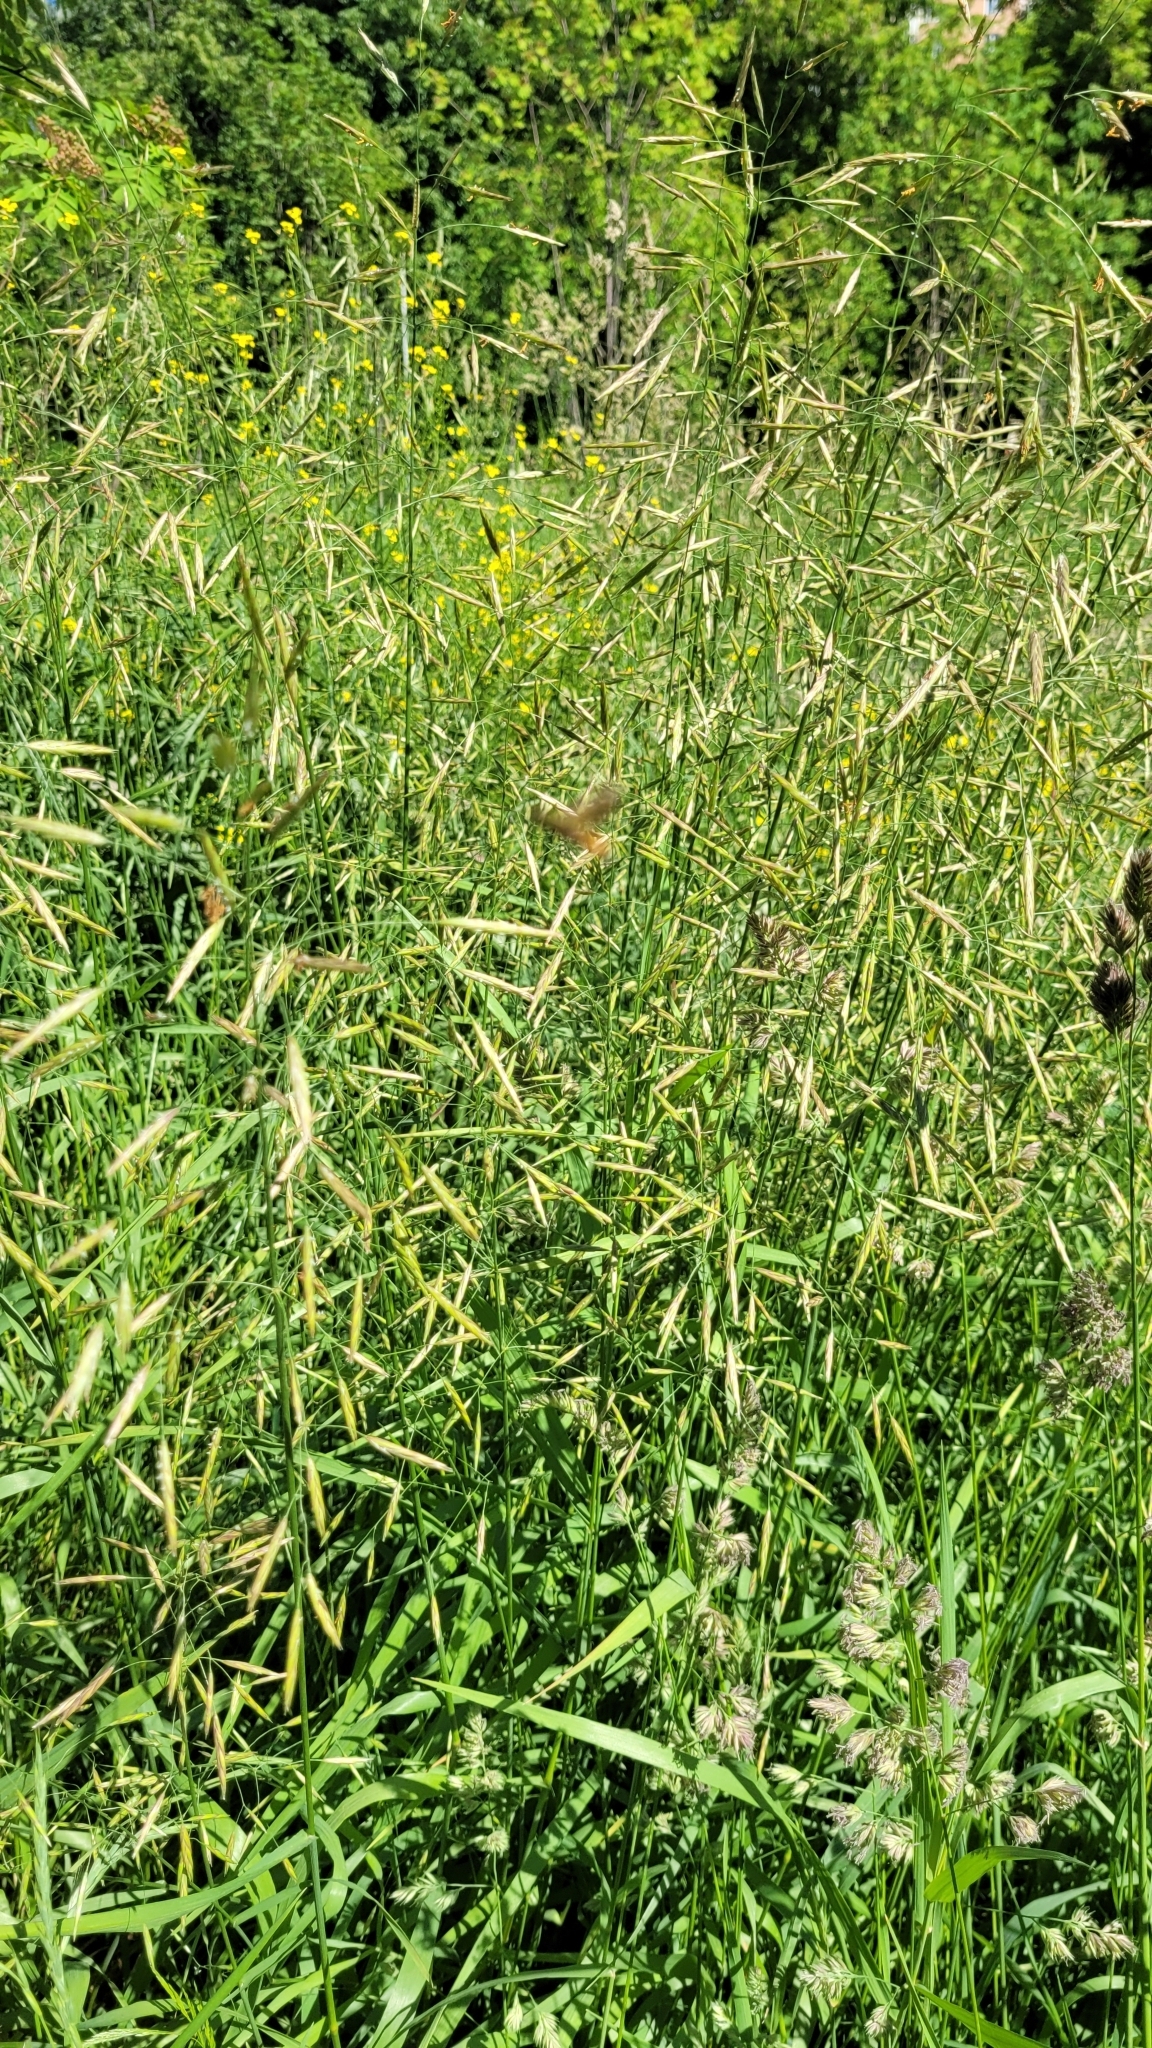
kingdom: Plantae
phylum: Tracheophyta
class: Liliopsida
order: Poales
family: Poaceae
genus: Bromus
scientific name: Bromus inermis
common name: Smooth brome
